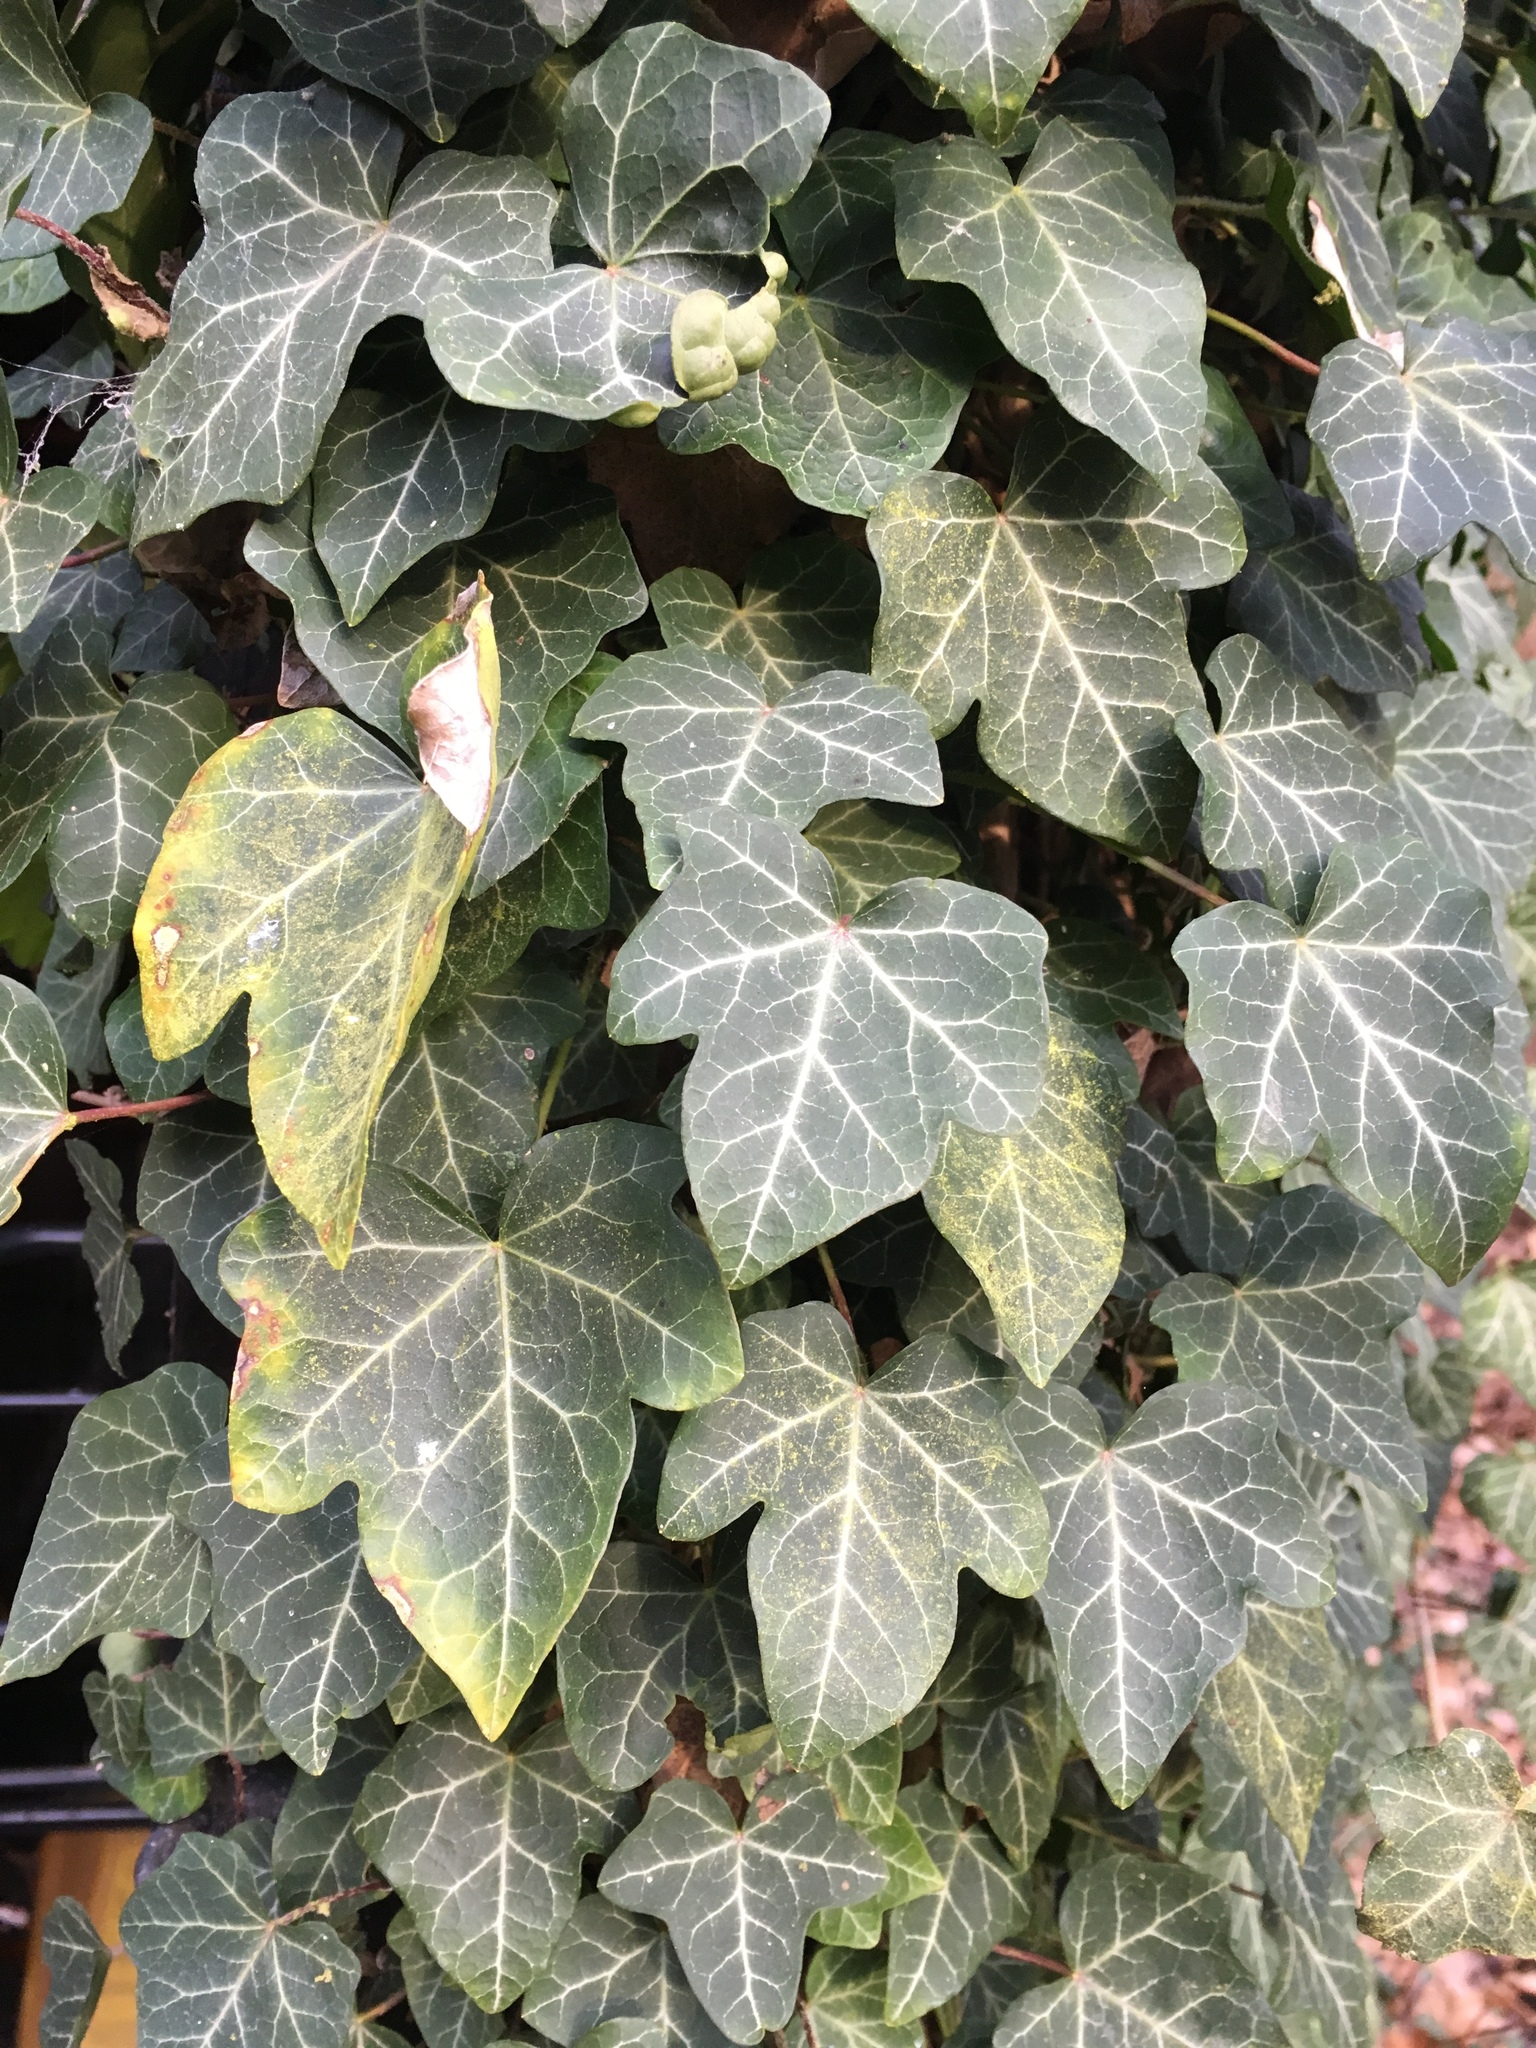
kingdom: Plantae
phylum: Tracheophyta
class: Magnoliopsida
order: Apiales
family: Araliaceae
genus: Hedera
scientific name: Hedera helix
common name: Ivy
